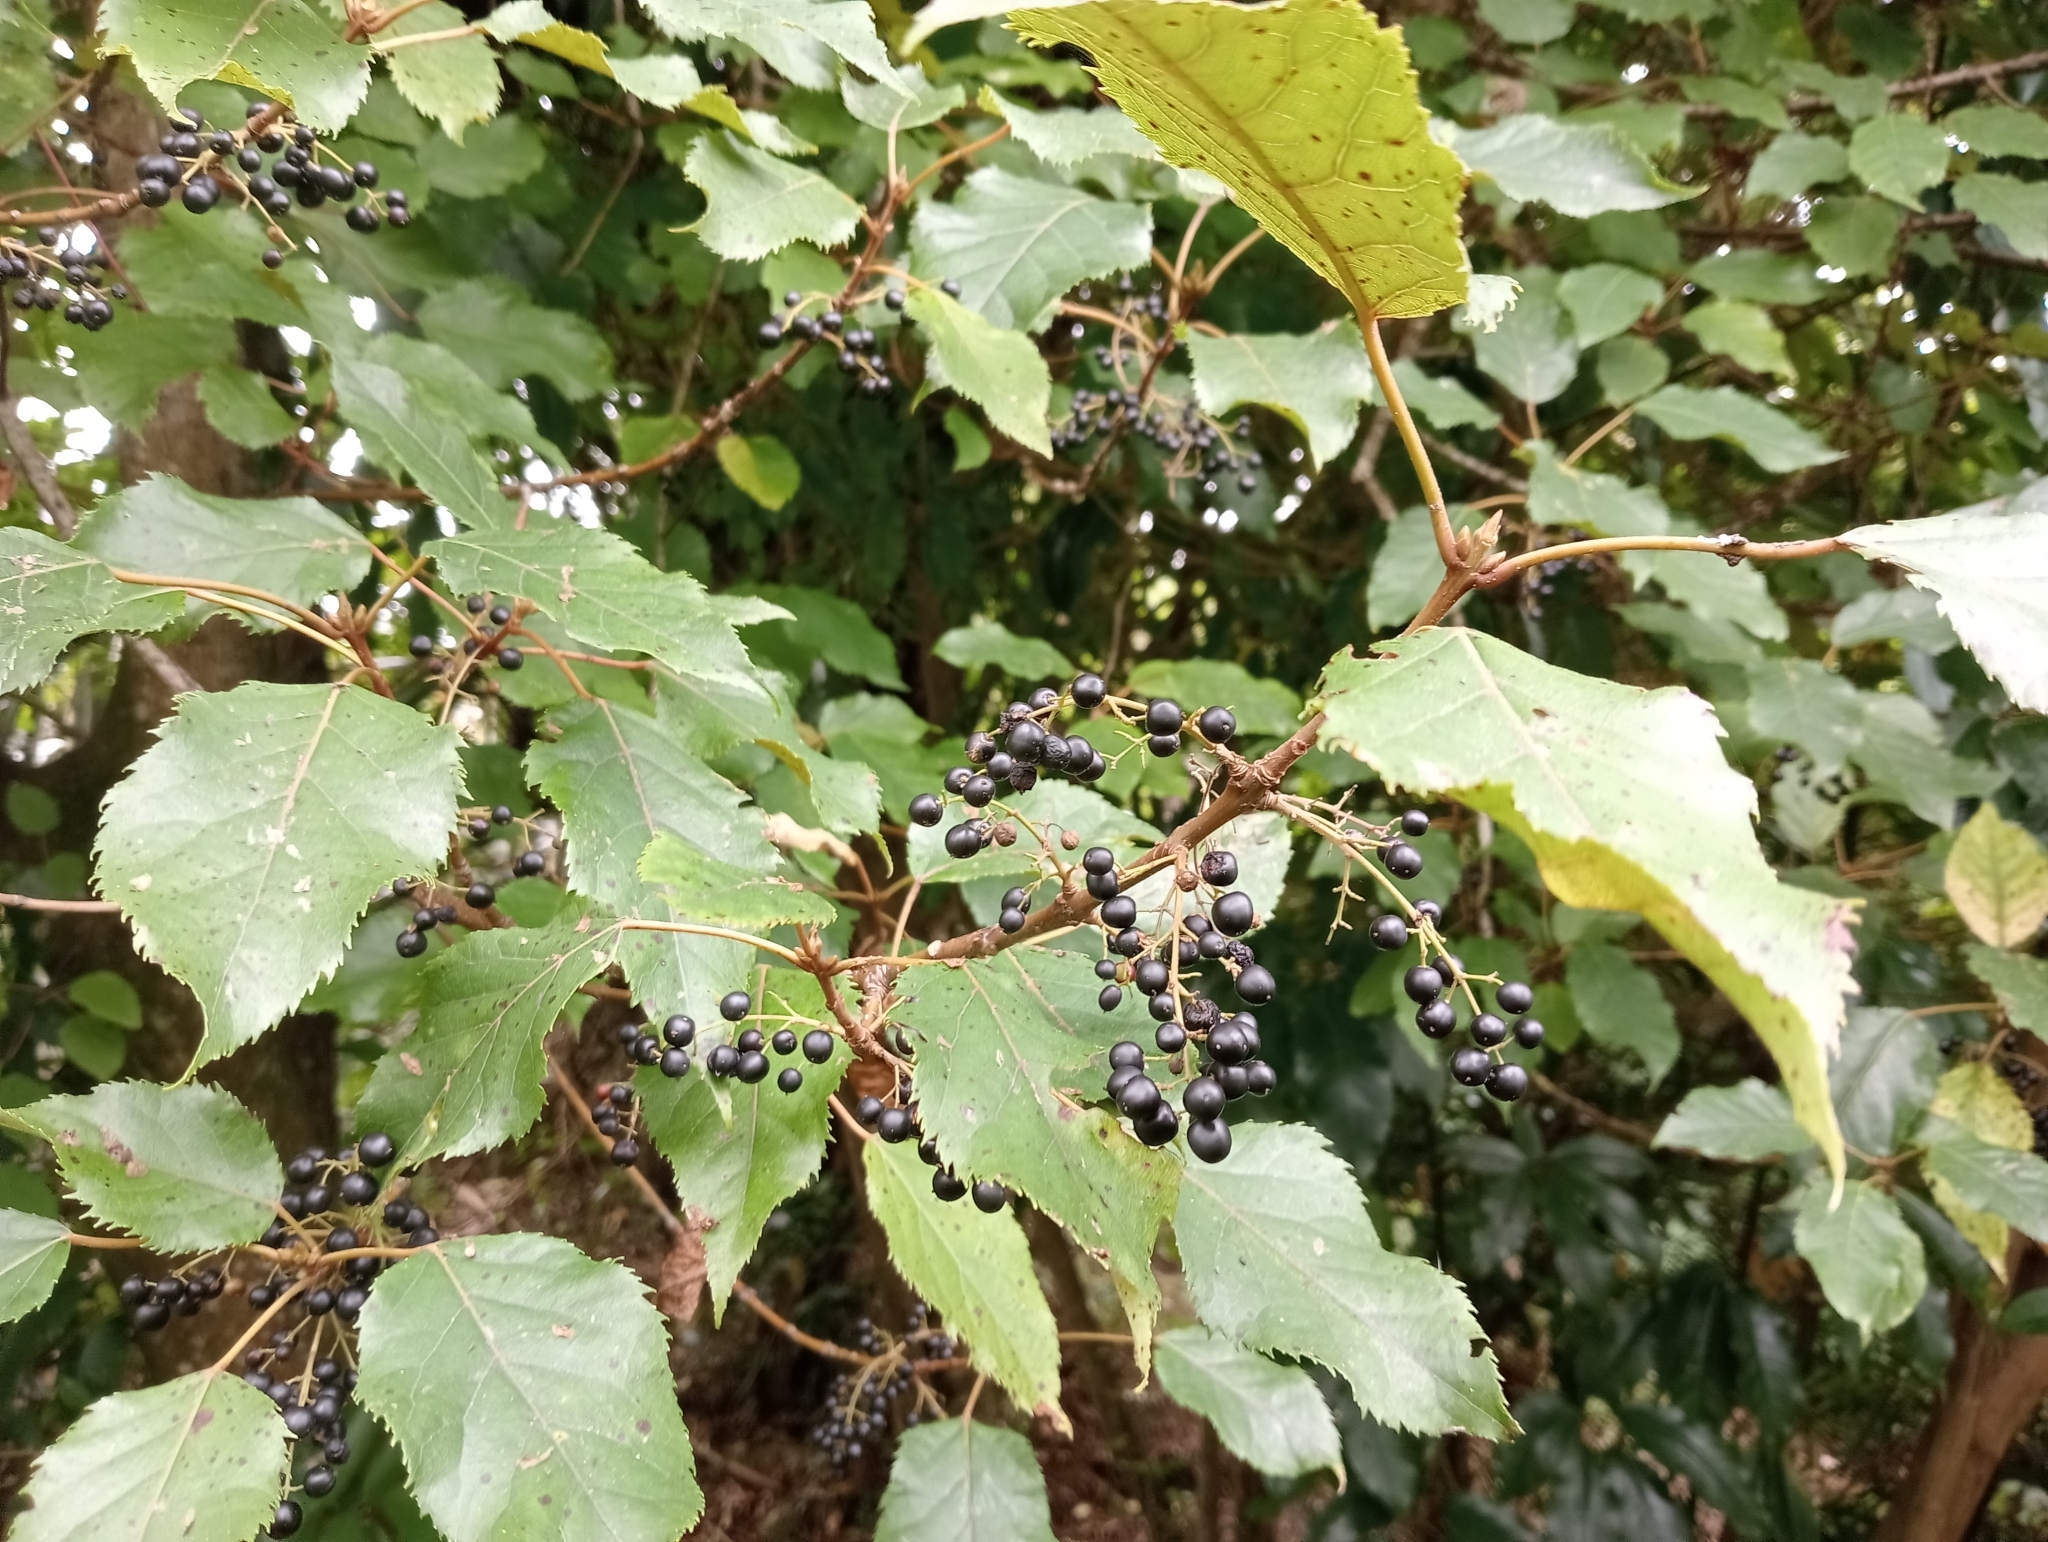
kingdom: Plantae
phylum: Tracheophyta
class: Magnoliopsida
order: Oxalidales
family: Elaeocarpaceae
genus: Aristotelia
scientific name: Aristotelia serrata
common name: New zealand wineberry
